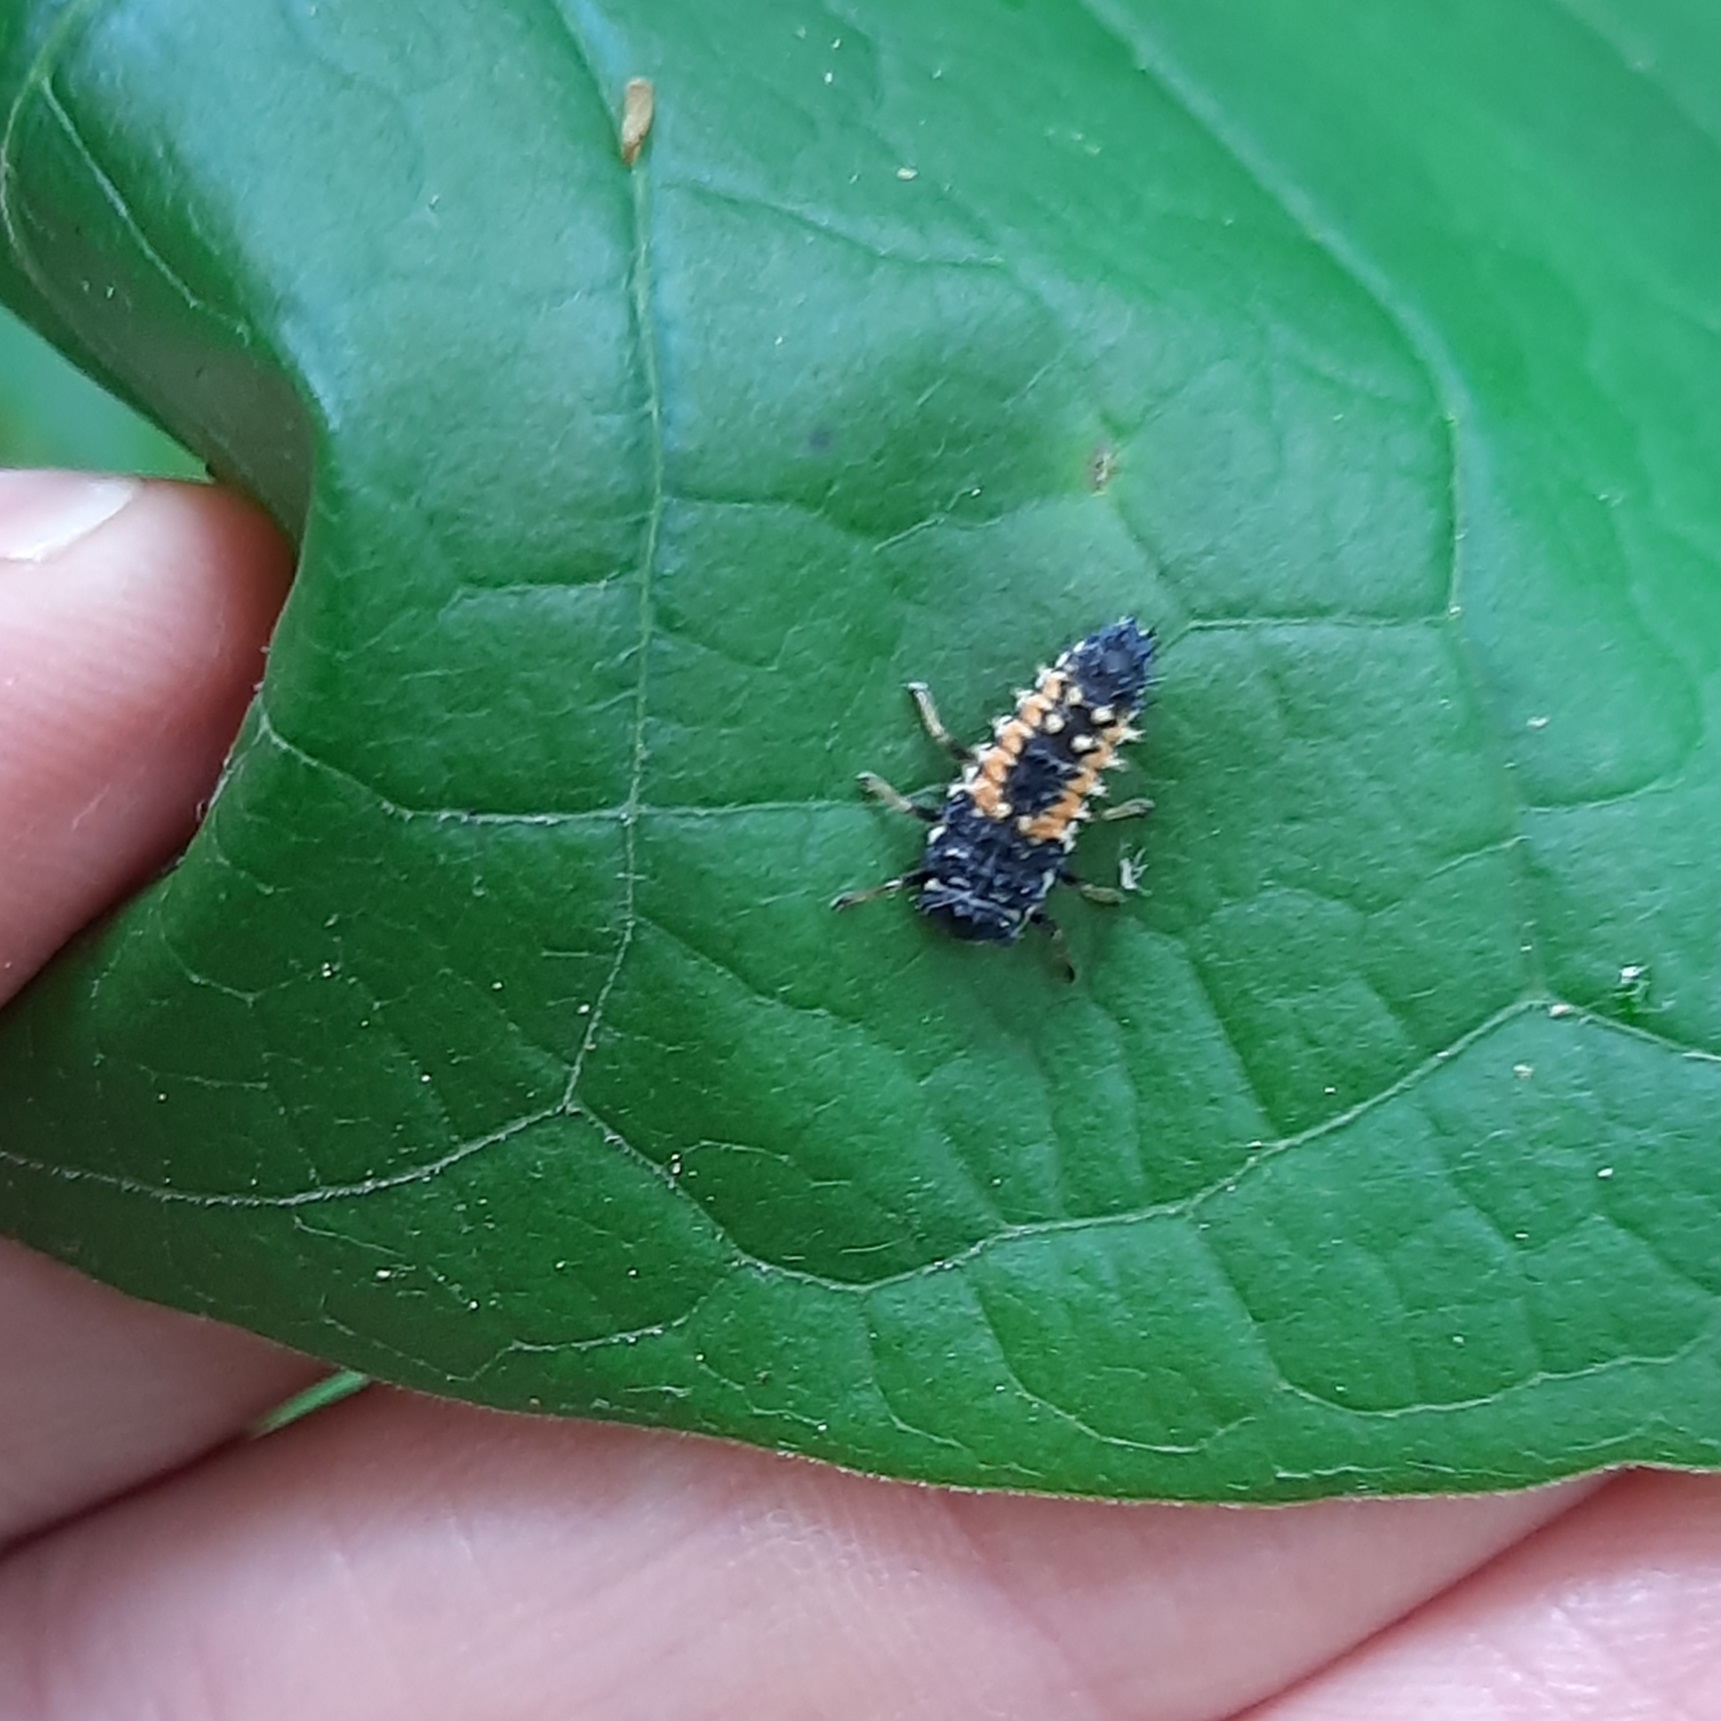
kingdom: Animalia
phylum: Arthropoda
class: Insecta
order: Coleoptera
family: Coccinellidae
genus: Harmonia
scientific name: Harmonia axyridis
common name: Harlequin ladybird
